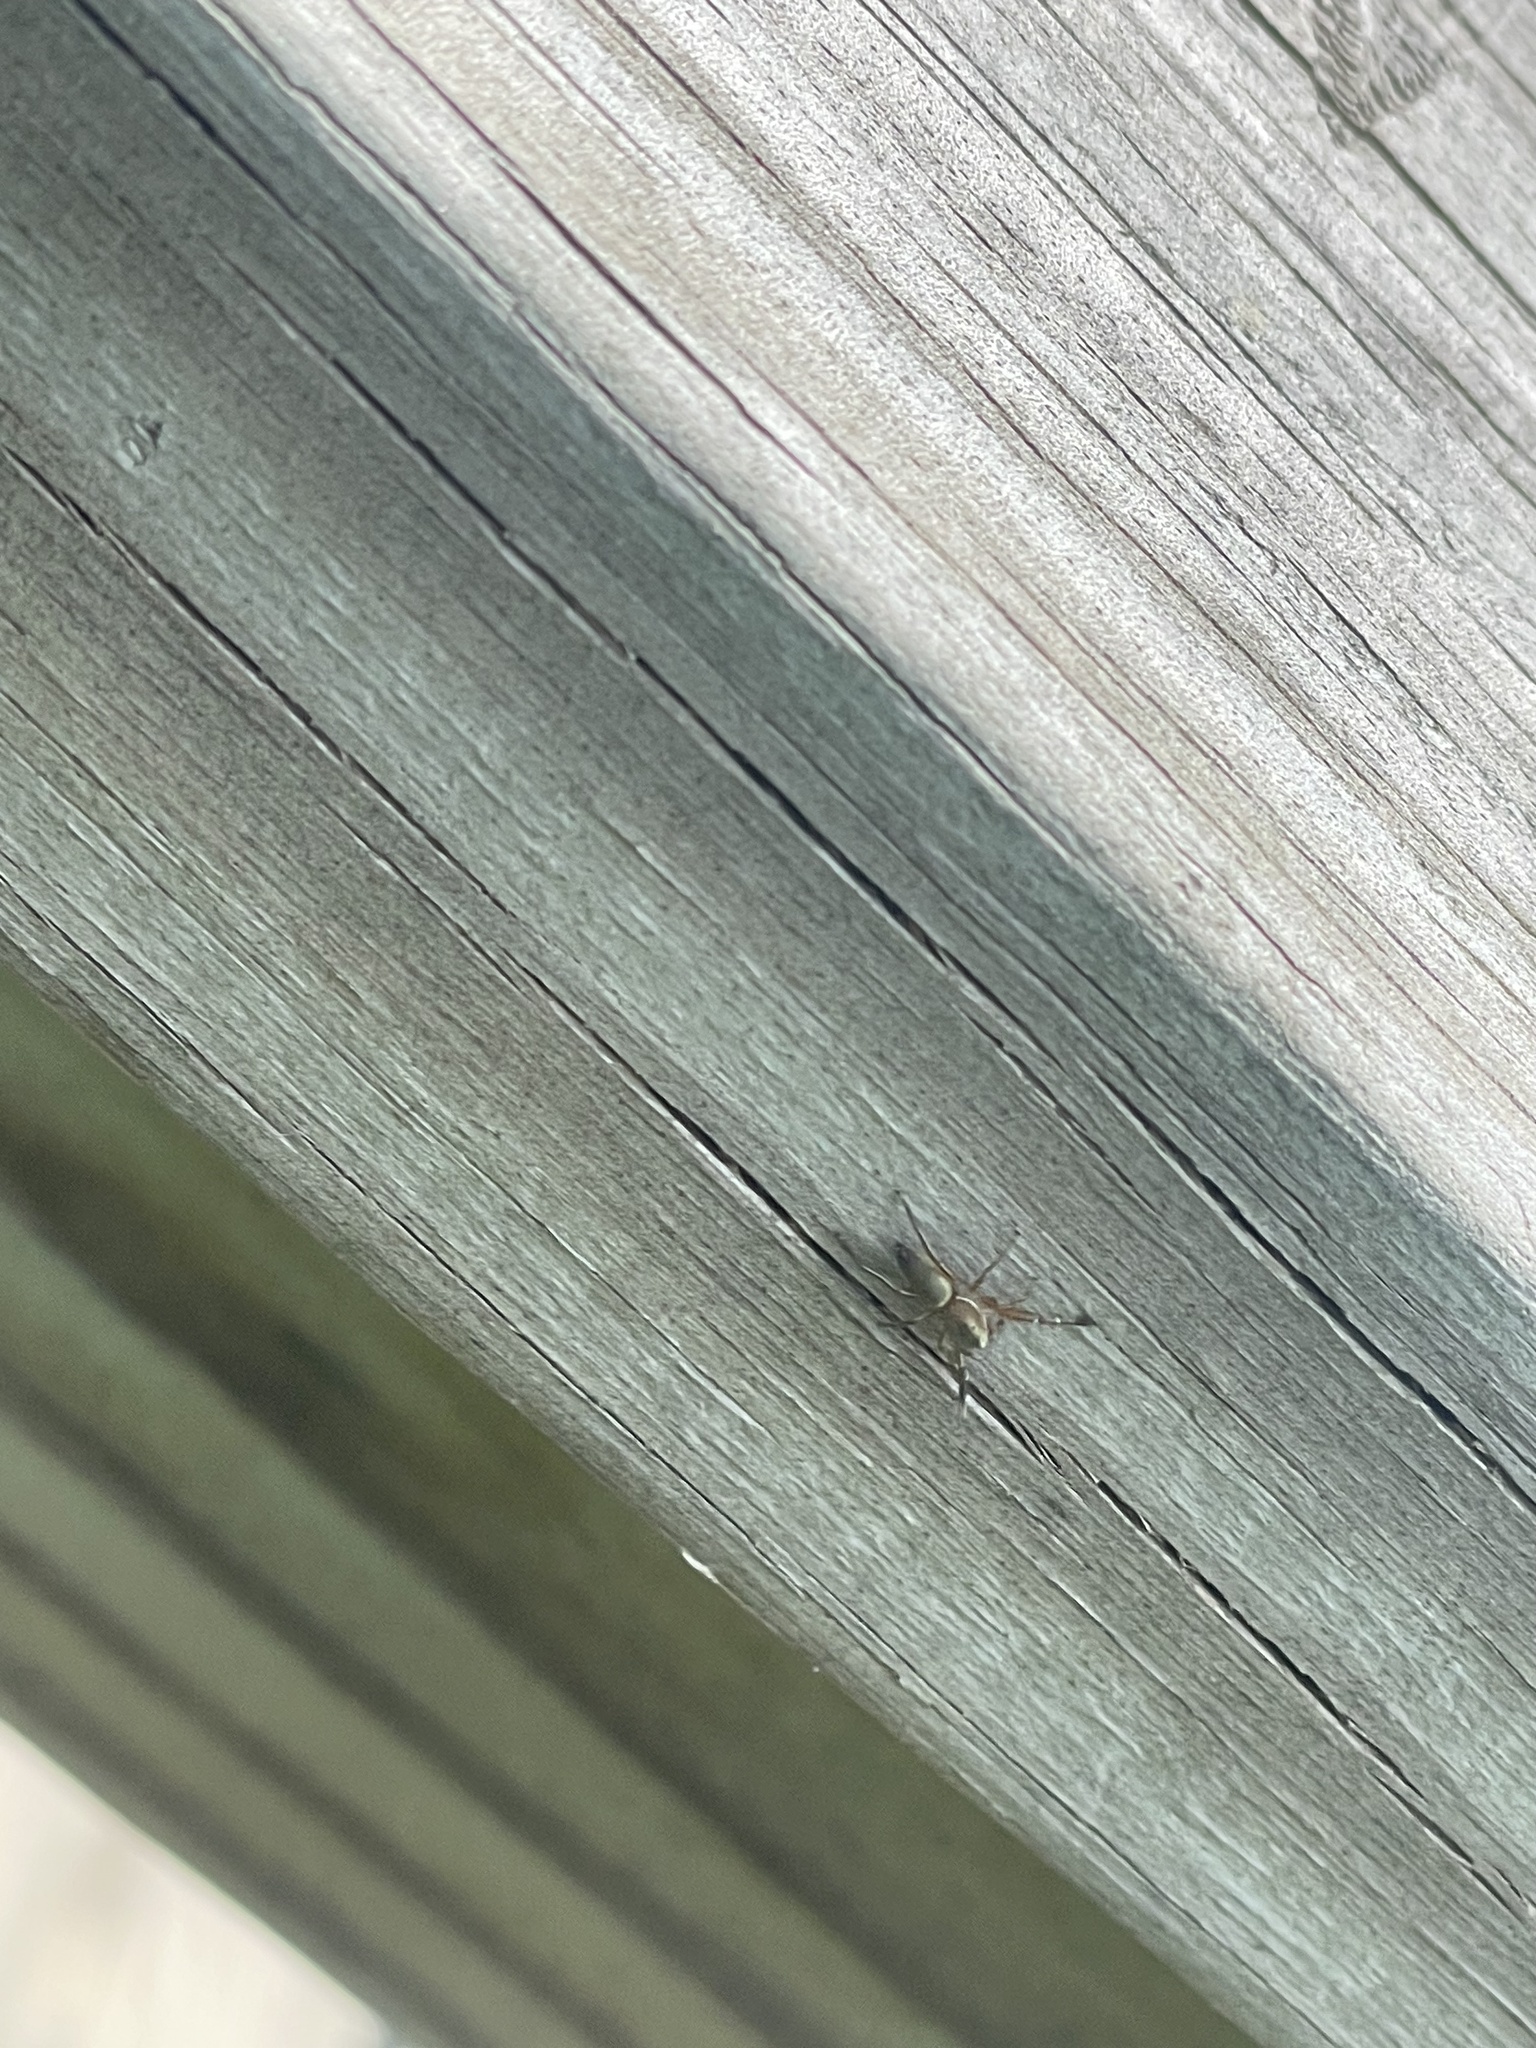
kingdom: Animalia
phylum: Arthropoda
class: Arachnida
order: Araneae
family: Salticidae
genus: Tutelina
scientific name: Tutelina elegans
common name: Thin-spined jumping spider
